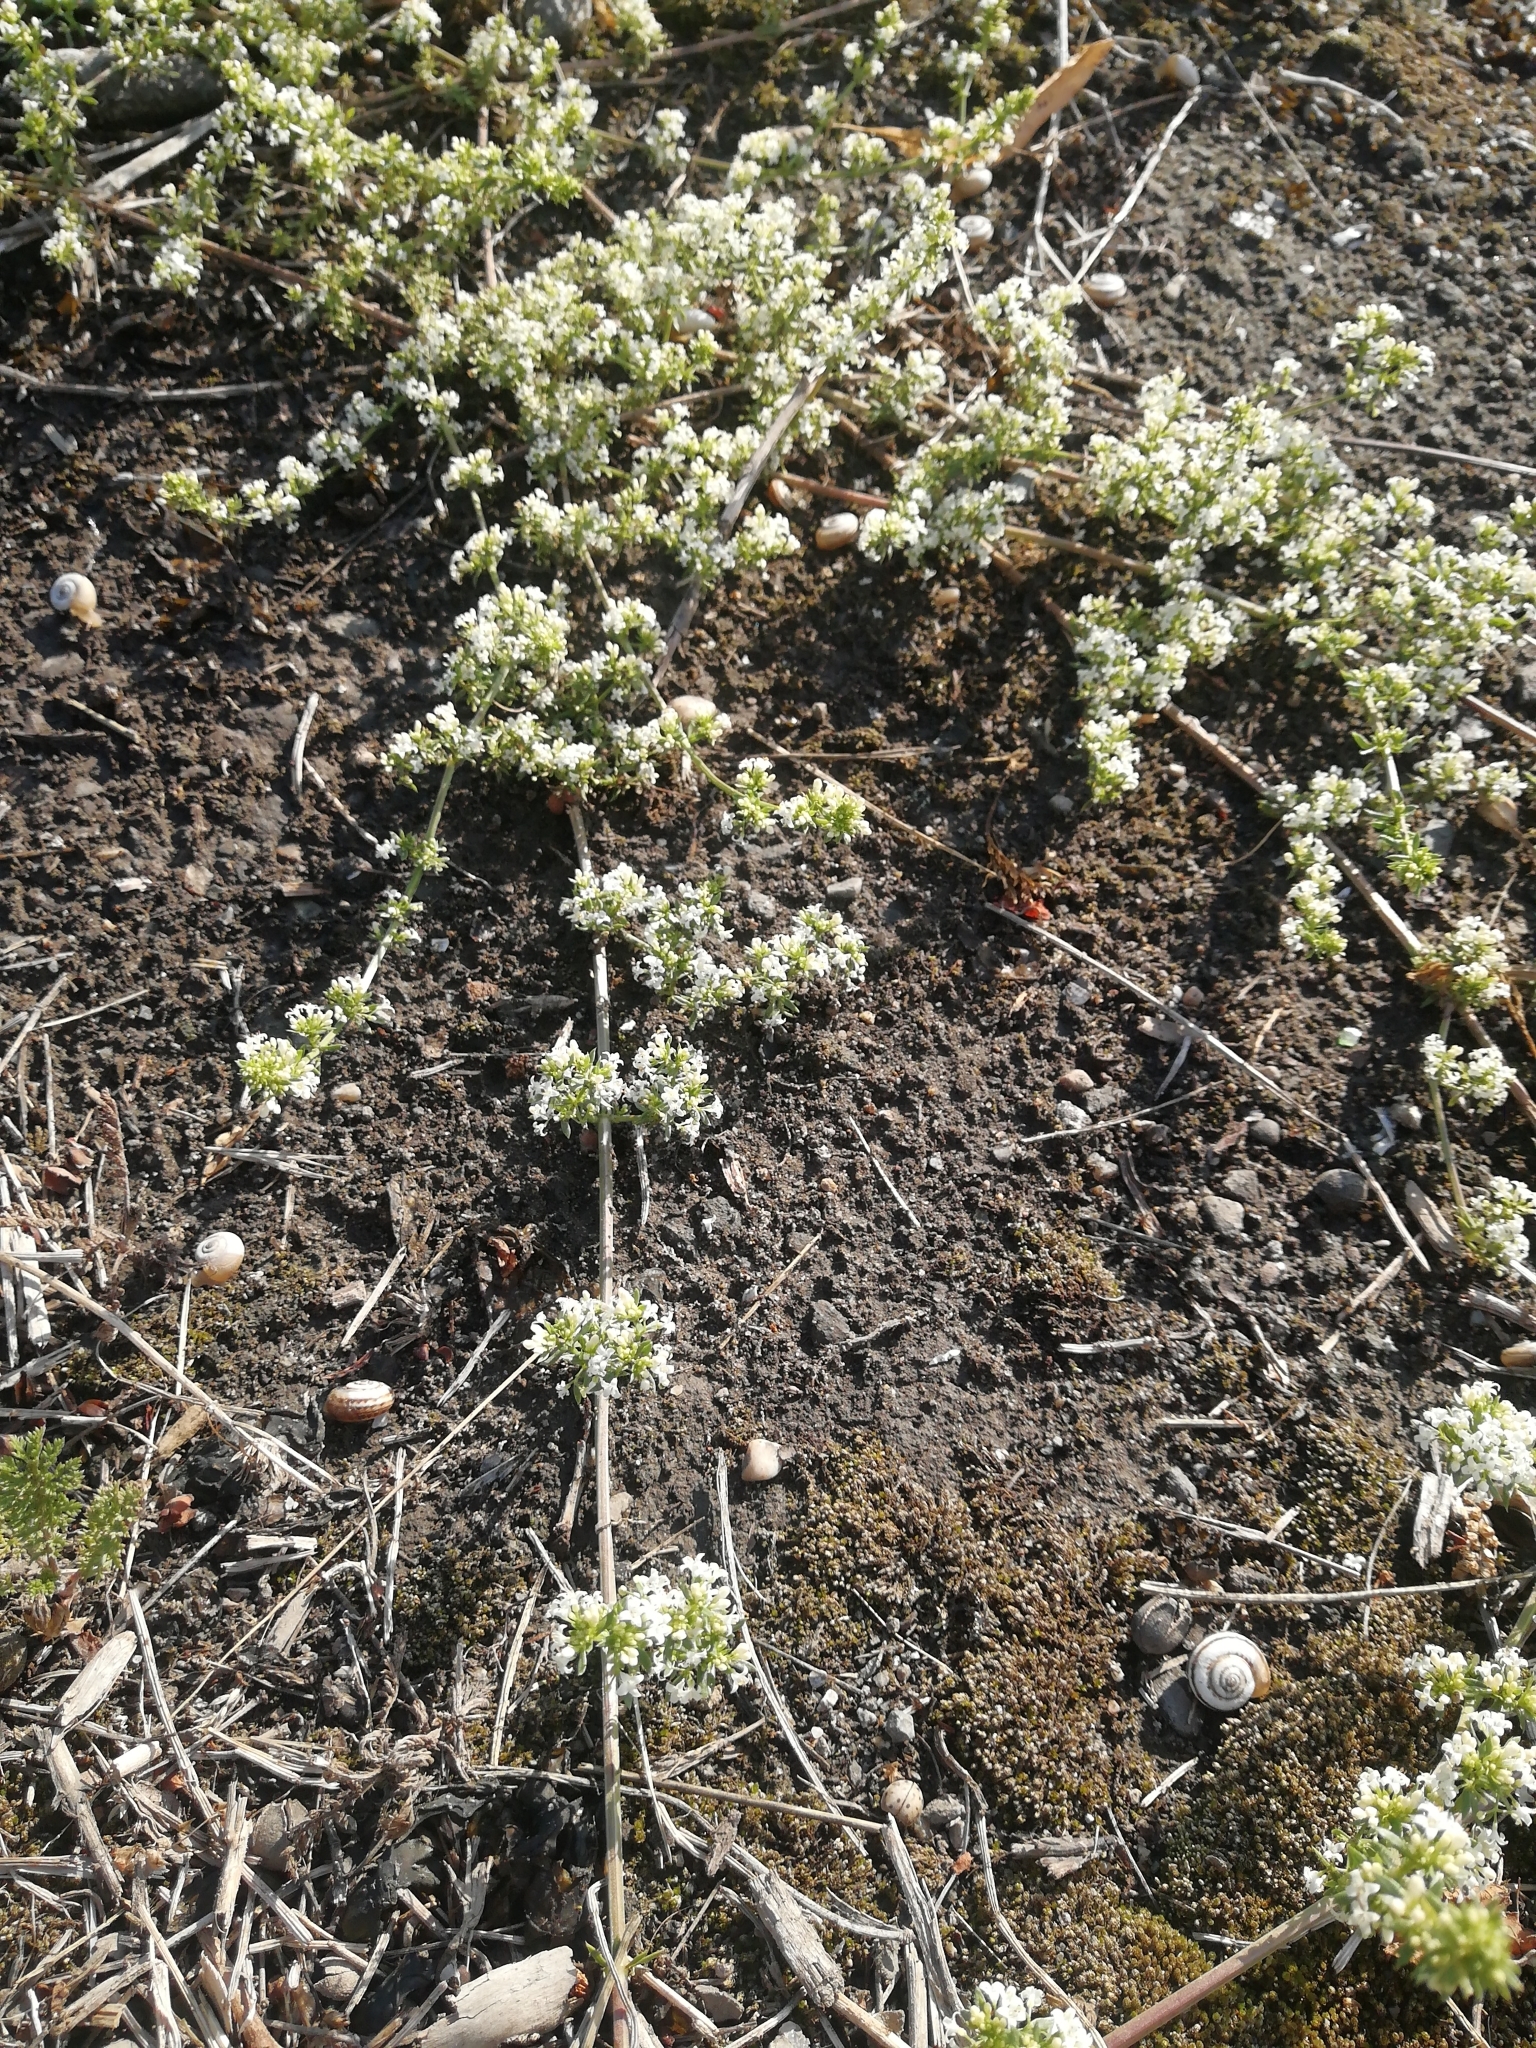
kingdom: Plantae
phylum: Tracheophyta
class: Magnoliopsida
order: Gentianales
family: Rubiaceae
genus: Galium
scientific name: Galium humifusum
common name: Spreading bedstraw
